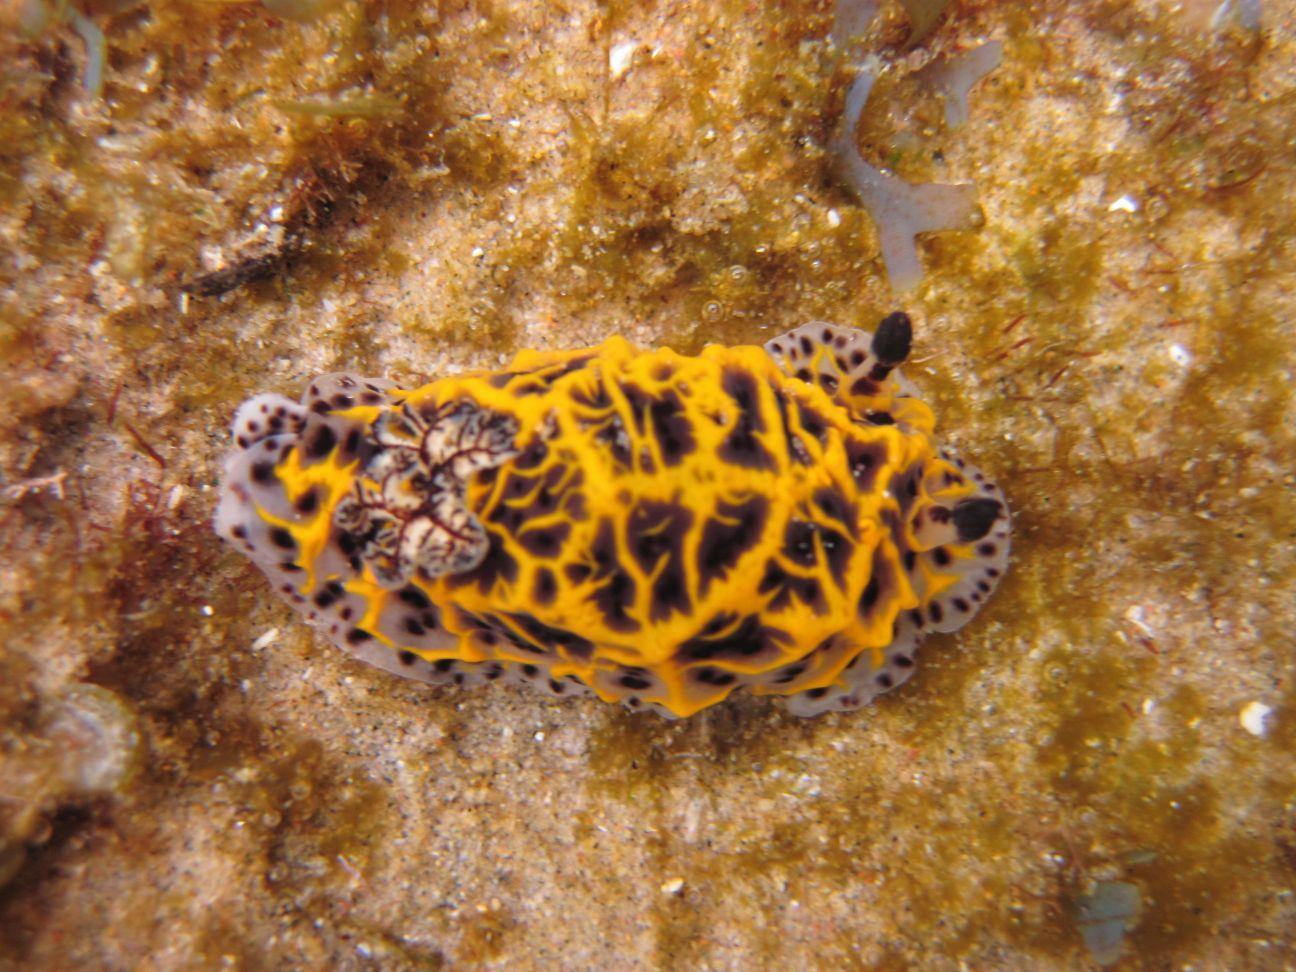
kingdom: Animalia
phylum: Mollusca
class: Gastropoda
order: Nudibranchia
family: Discodorididae
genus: Halgerda
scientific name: Halgerda wasinensis
